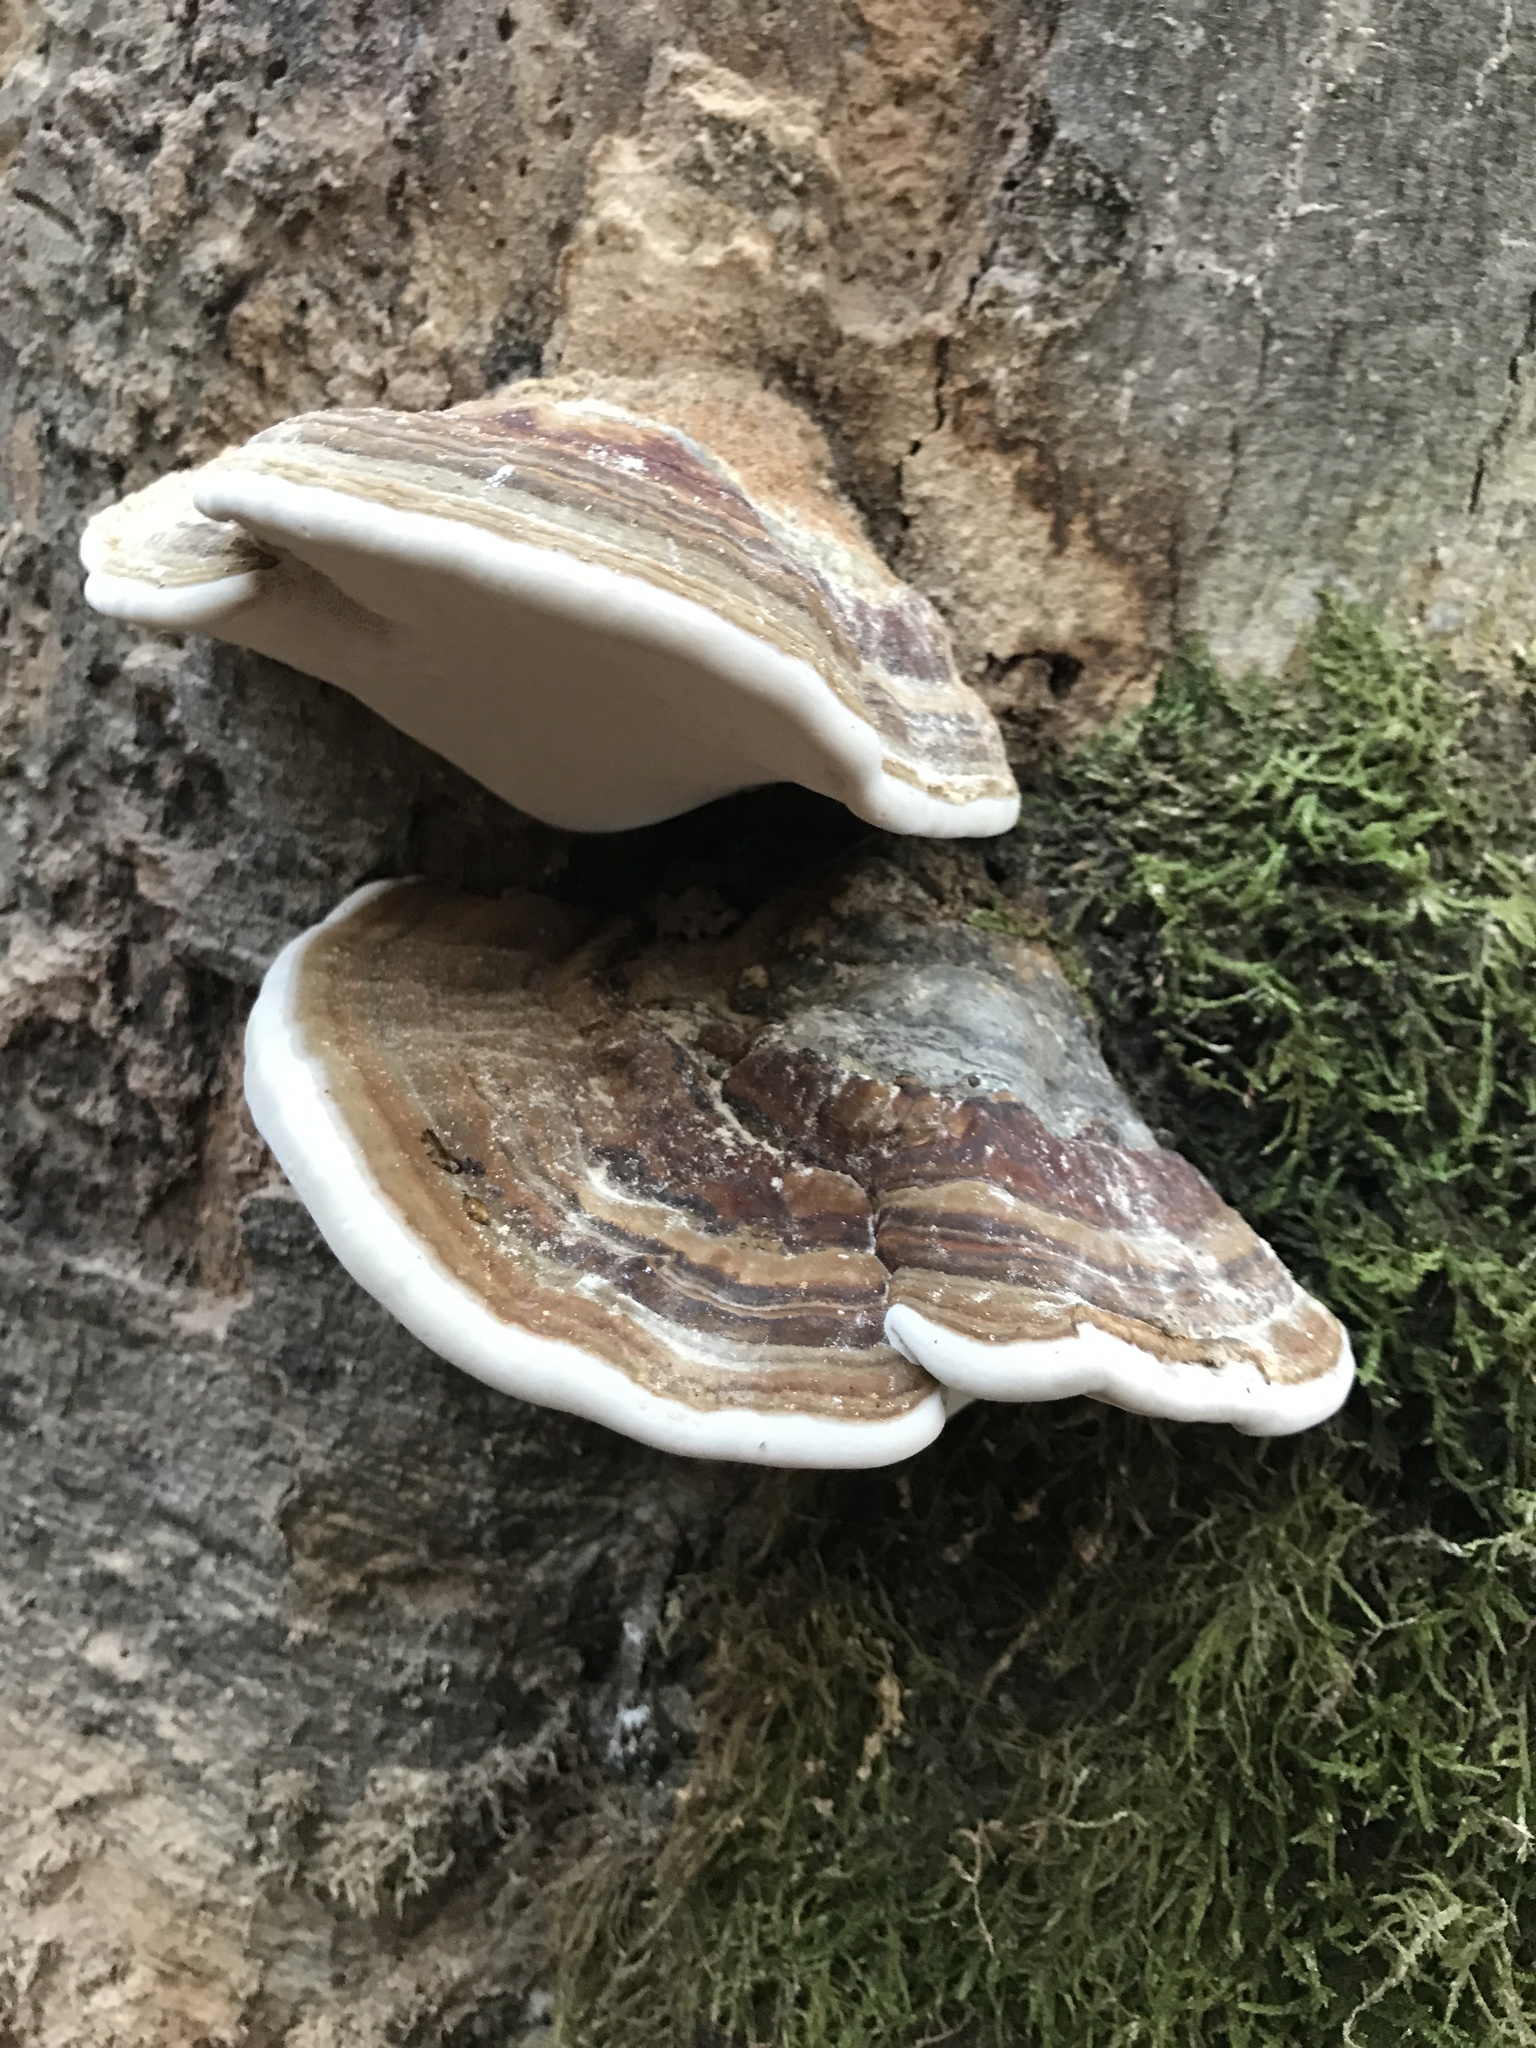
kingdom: Fungi
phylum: Basidiomycota
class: Agaricomycetes
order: Polyporales
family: Polyporaceae
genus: Ganoderma
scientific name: Ganoderma applanatum
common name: Artist's bracket
